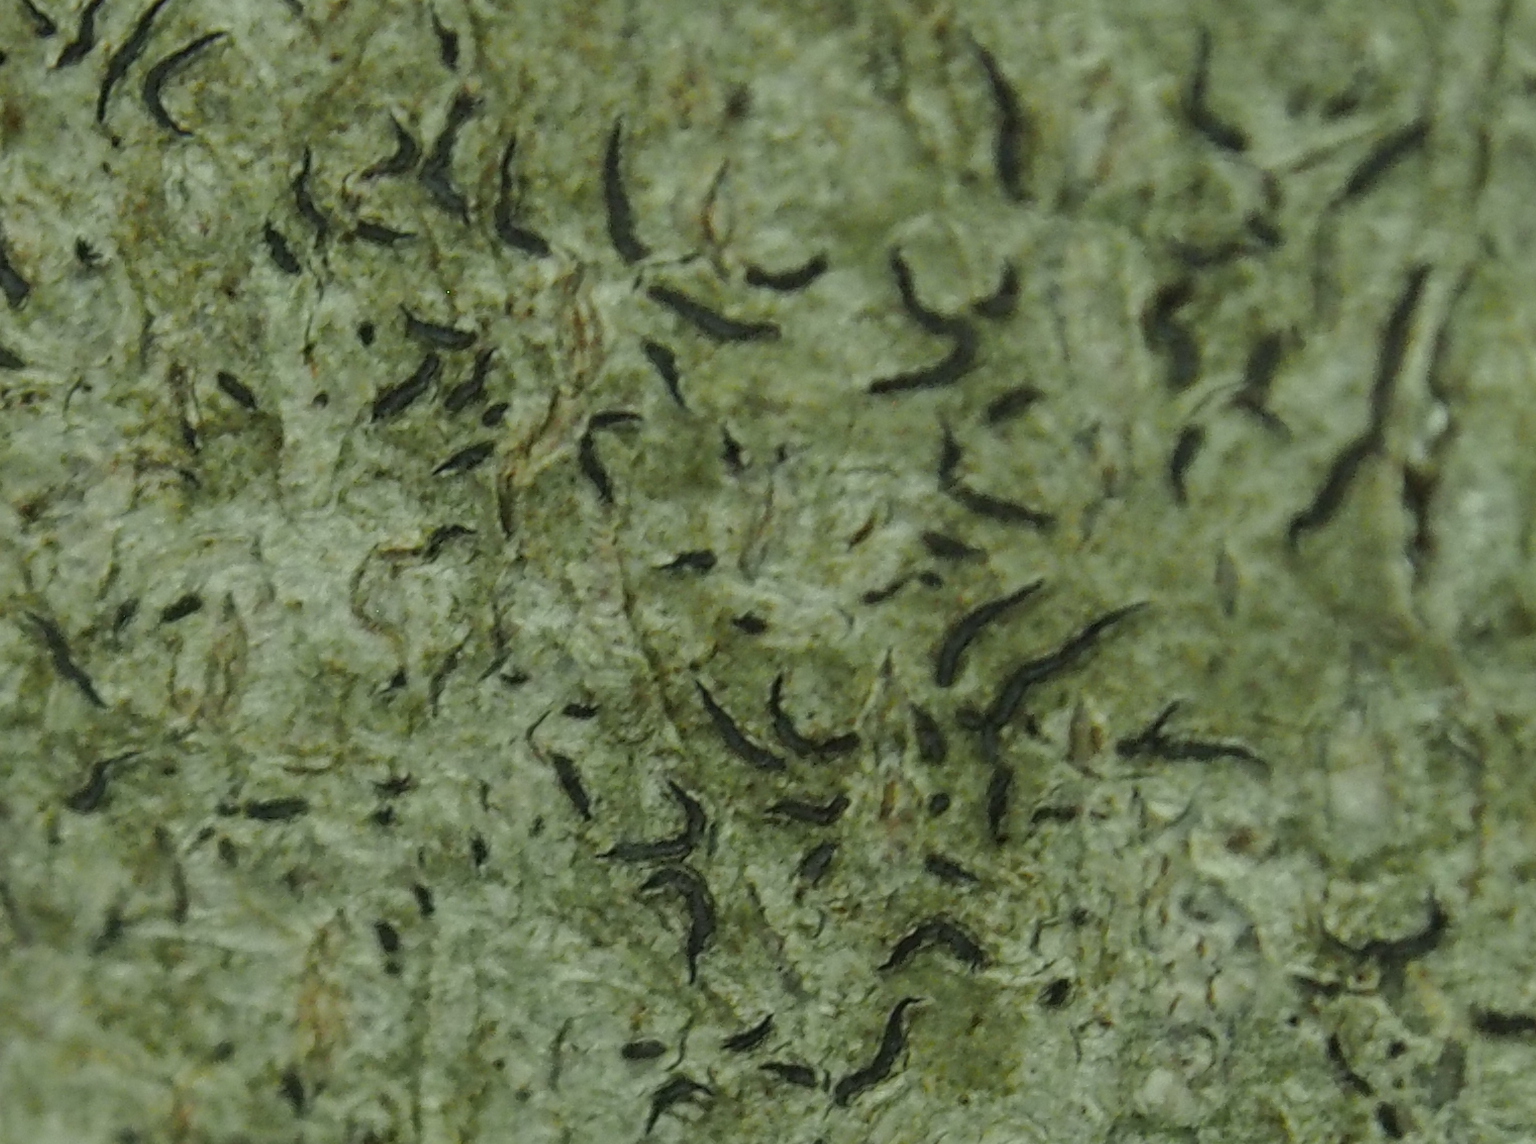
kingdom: Fungi
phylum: Ascomycota
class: Lecanoromycetes
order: Ostropales
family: Graphidaceae
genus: Graphis
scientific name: Graphis scripta
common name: Script lichen
